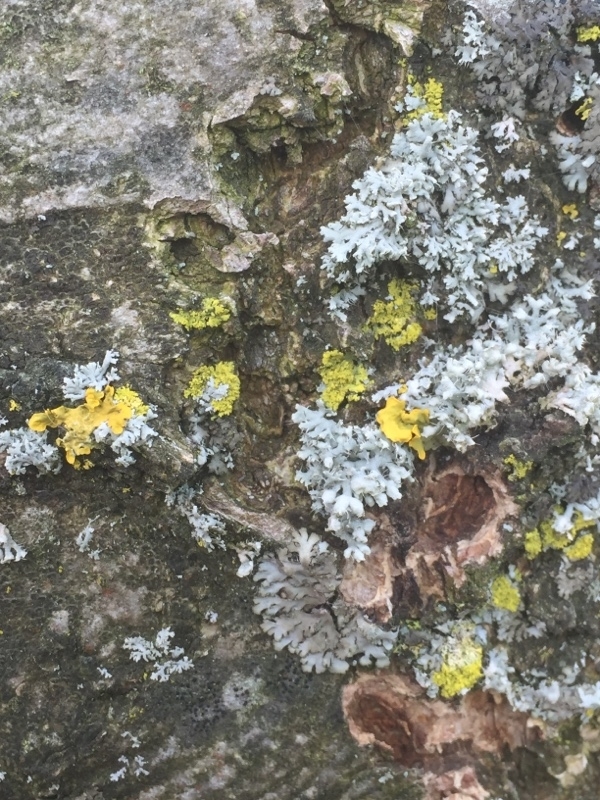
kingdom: Fungi
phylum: Ascomycota
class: Lecanoromycetes
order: Caliciales
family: Physciaceae
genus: Physcia
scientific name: Physcia adscendens
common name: Hooded rosette lichen
